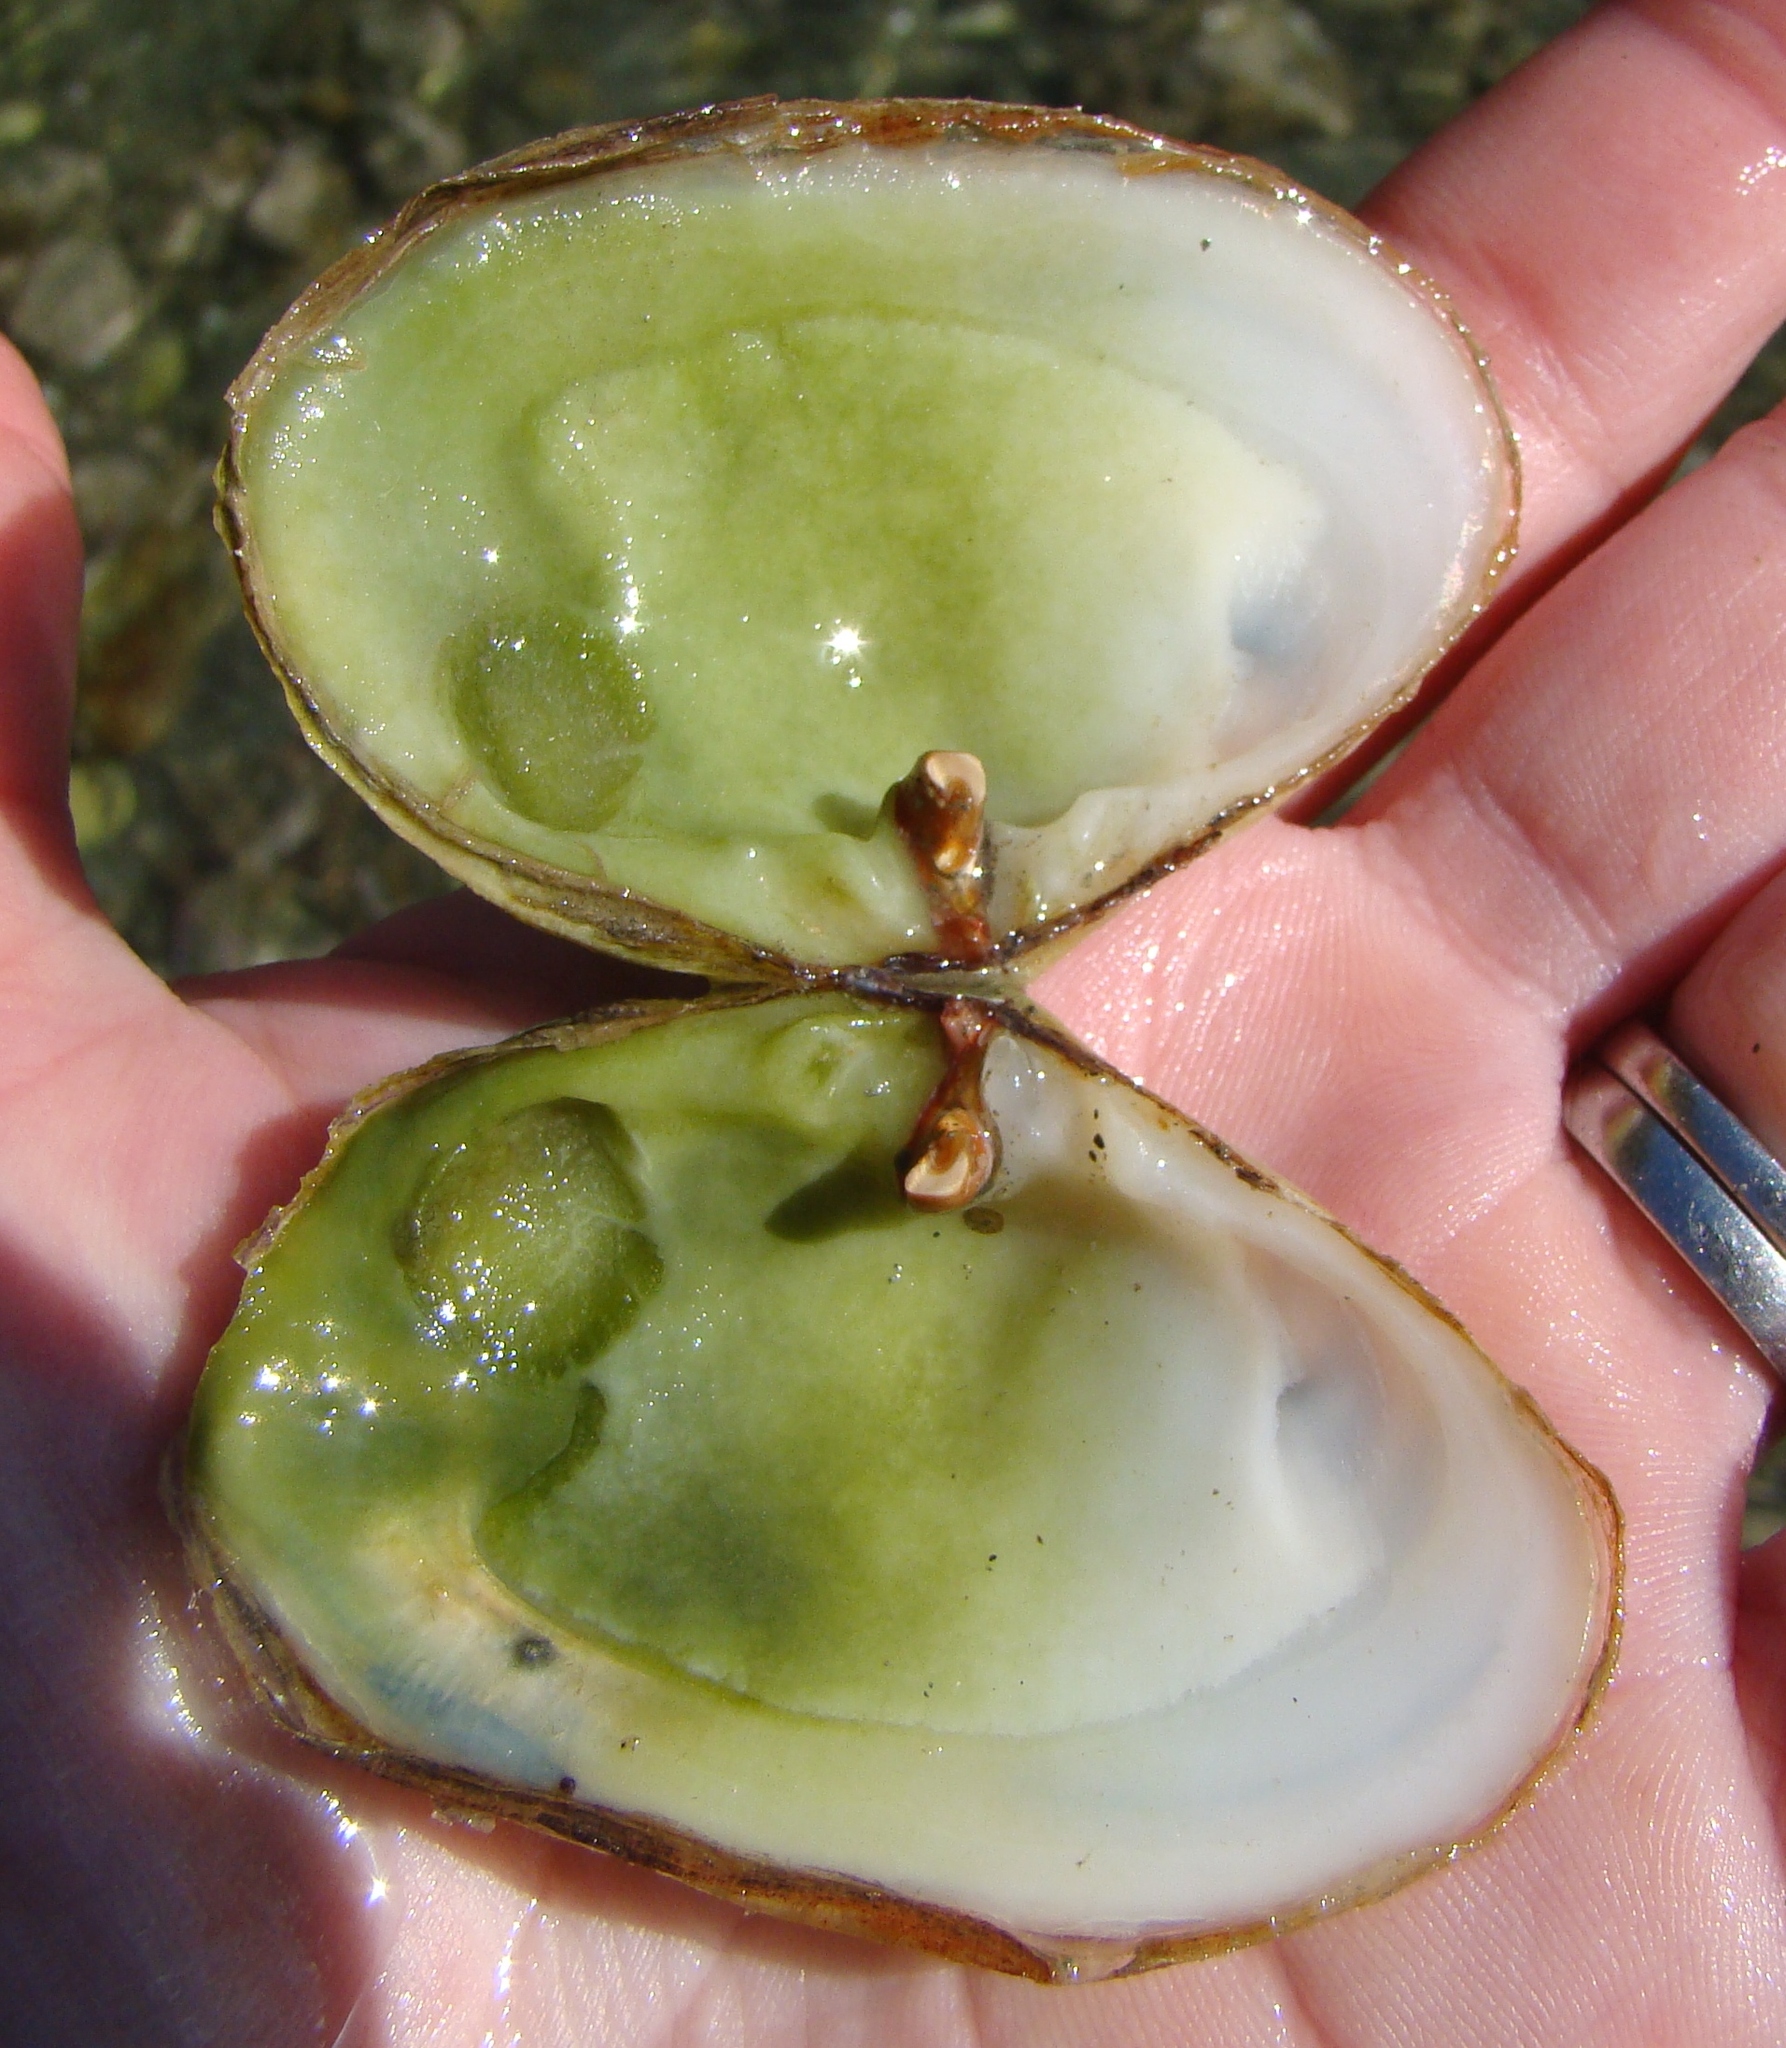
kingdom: Animalia
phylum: Mollusca
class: Bivalvia
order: Venerida
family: Mesodesmatidae
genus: Paphies
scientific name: Paphies australis
